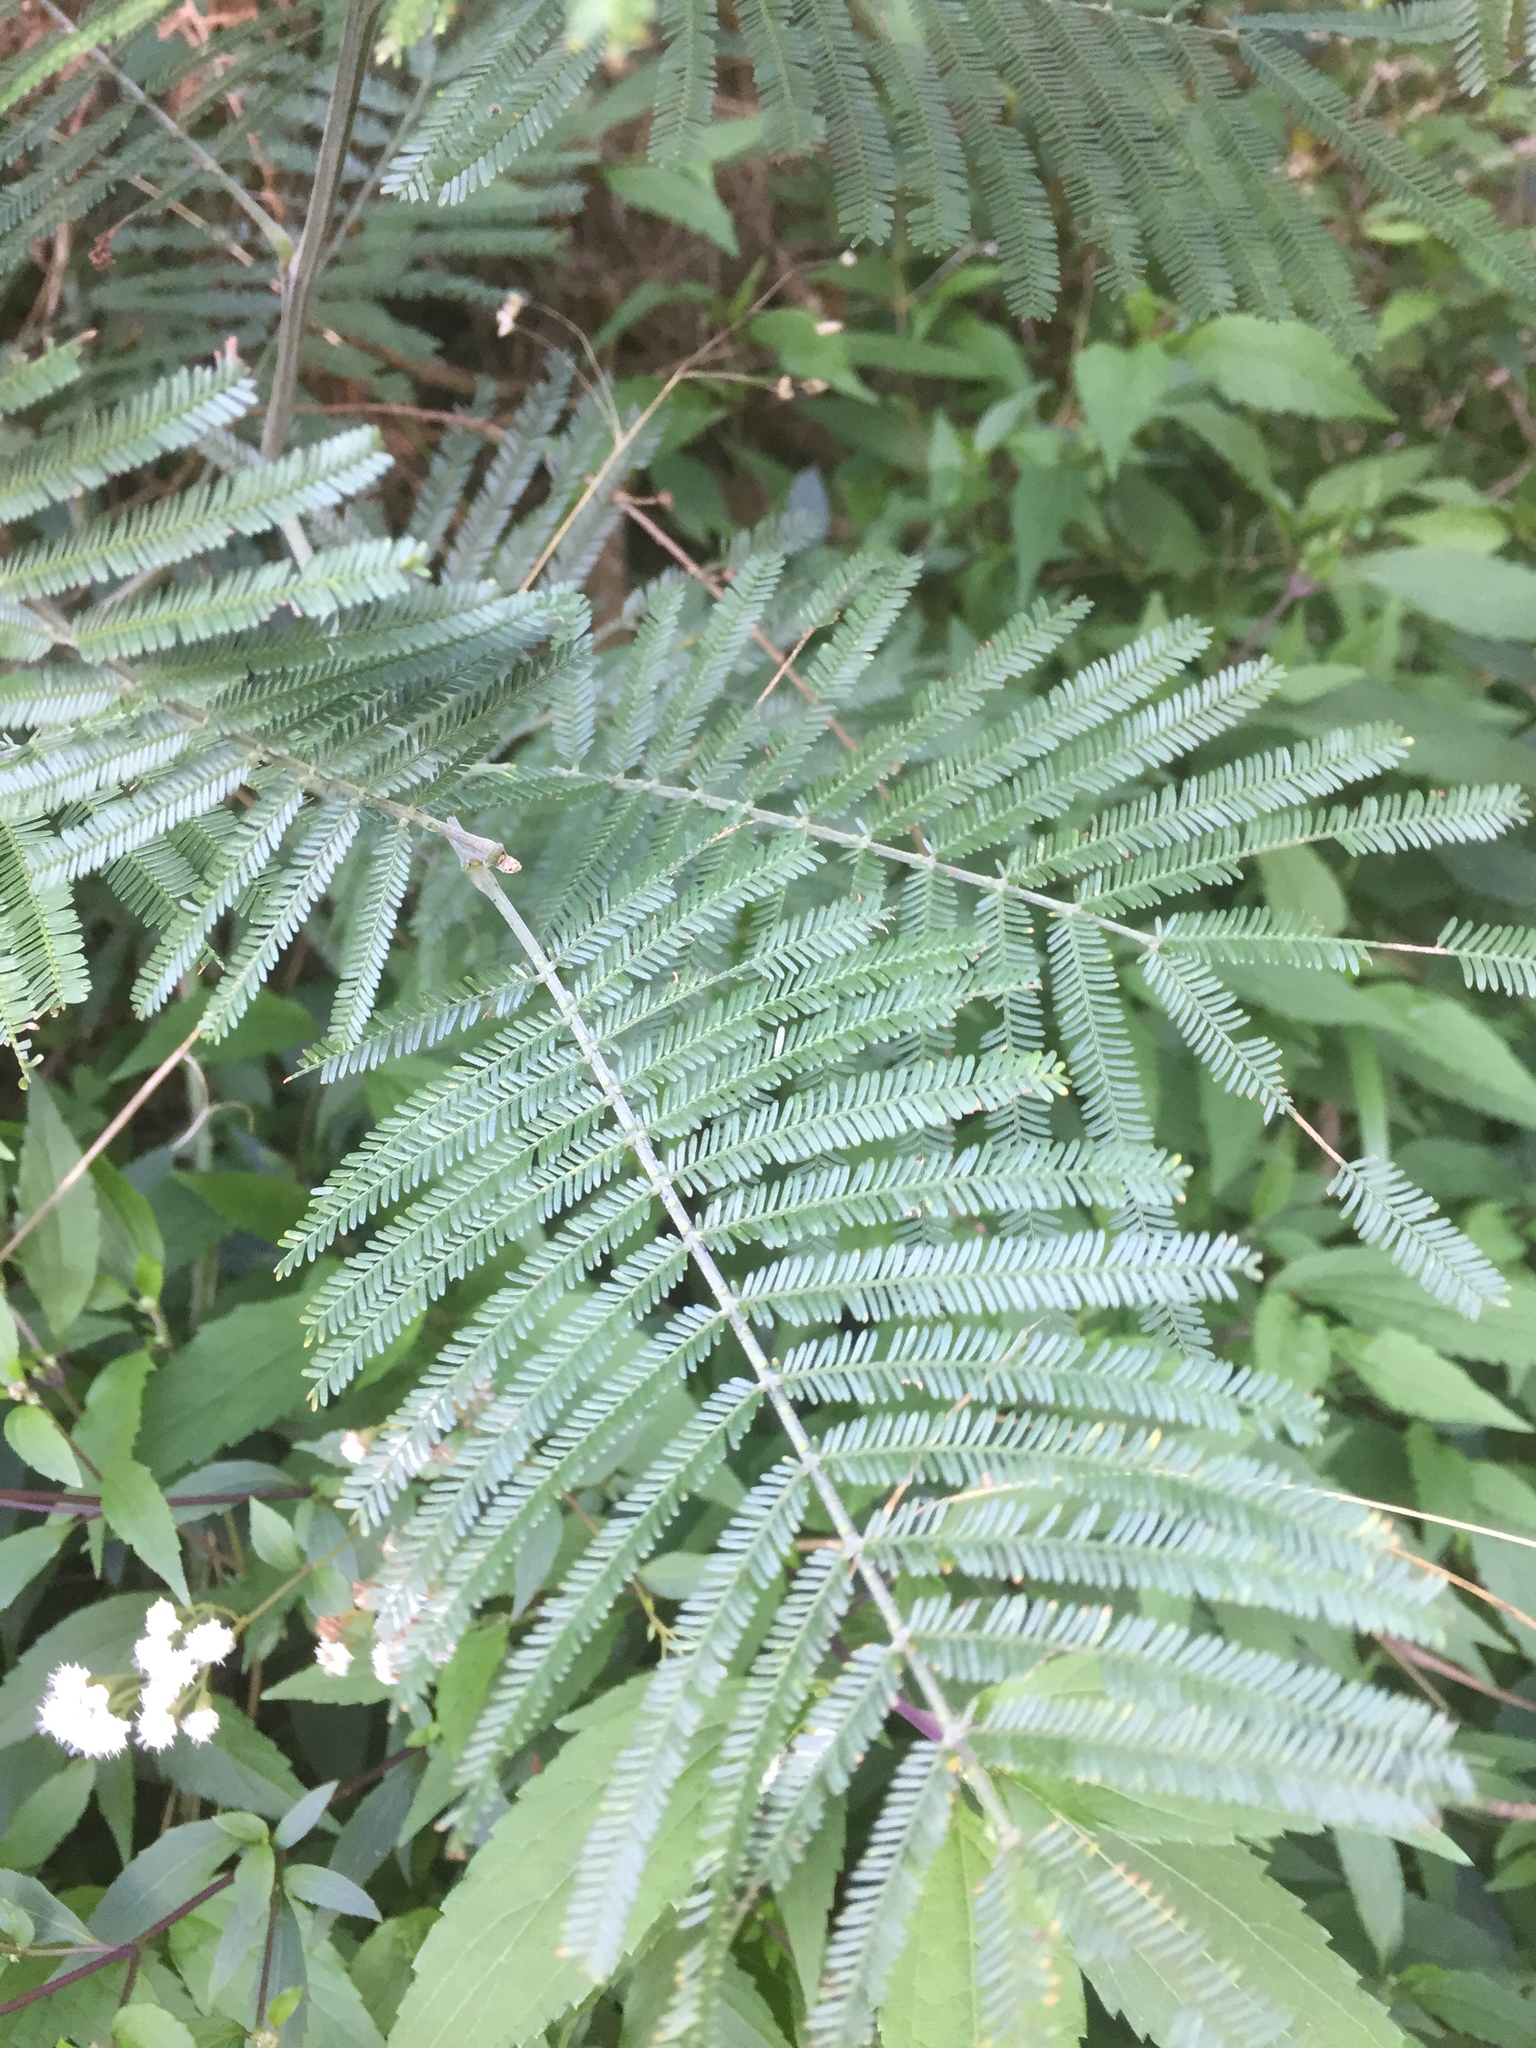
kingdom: Plantae
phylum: Tracheophyta
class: Magnoliopsida
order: Fabales
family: Fabaceae
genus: Acacia
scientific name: Acacia mearnsii
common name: Black wattle
